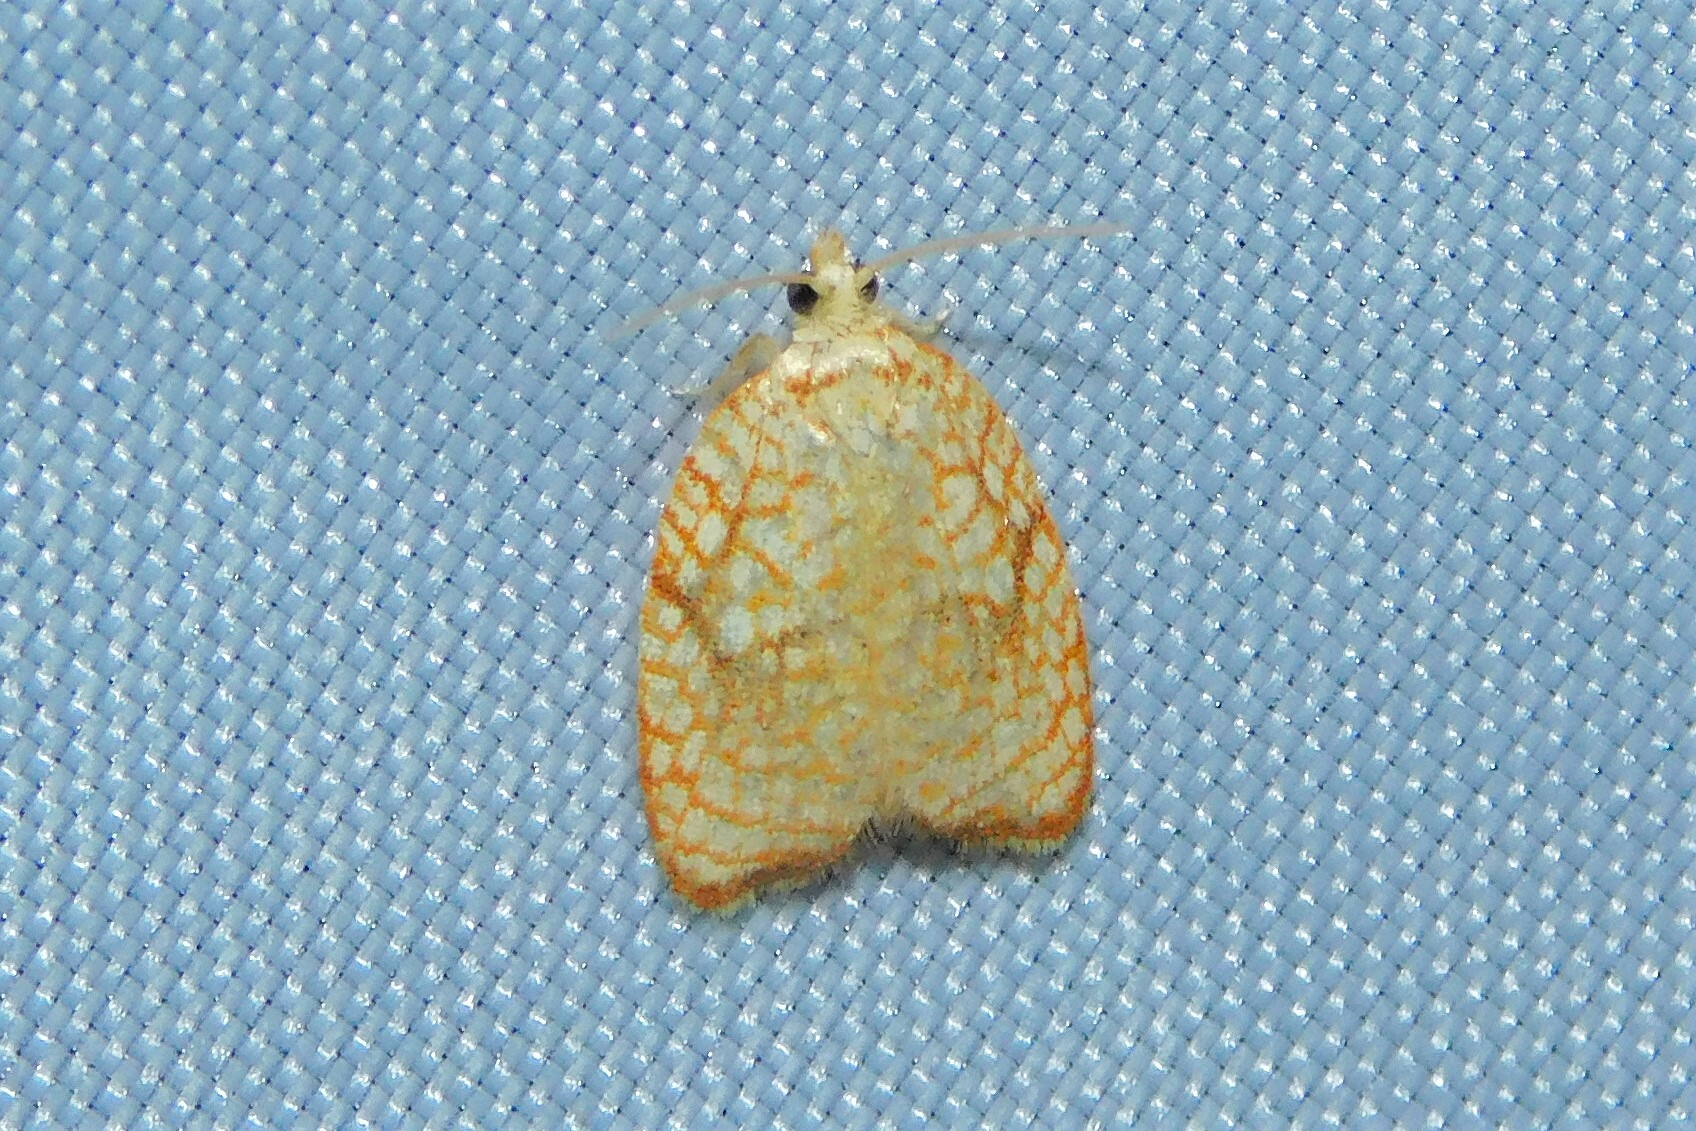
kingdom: Animalia
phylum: Arthropoda
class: Insecta
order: Lepidoptera
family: Tortricidae
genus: Acleris
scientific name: Acleris forsskaleana
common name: Maple button
